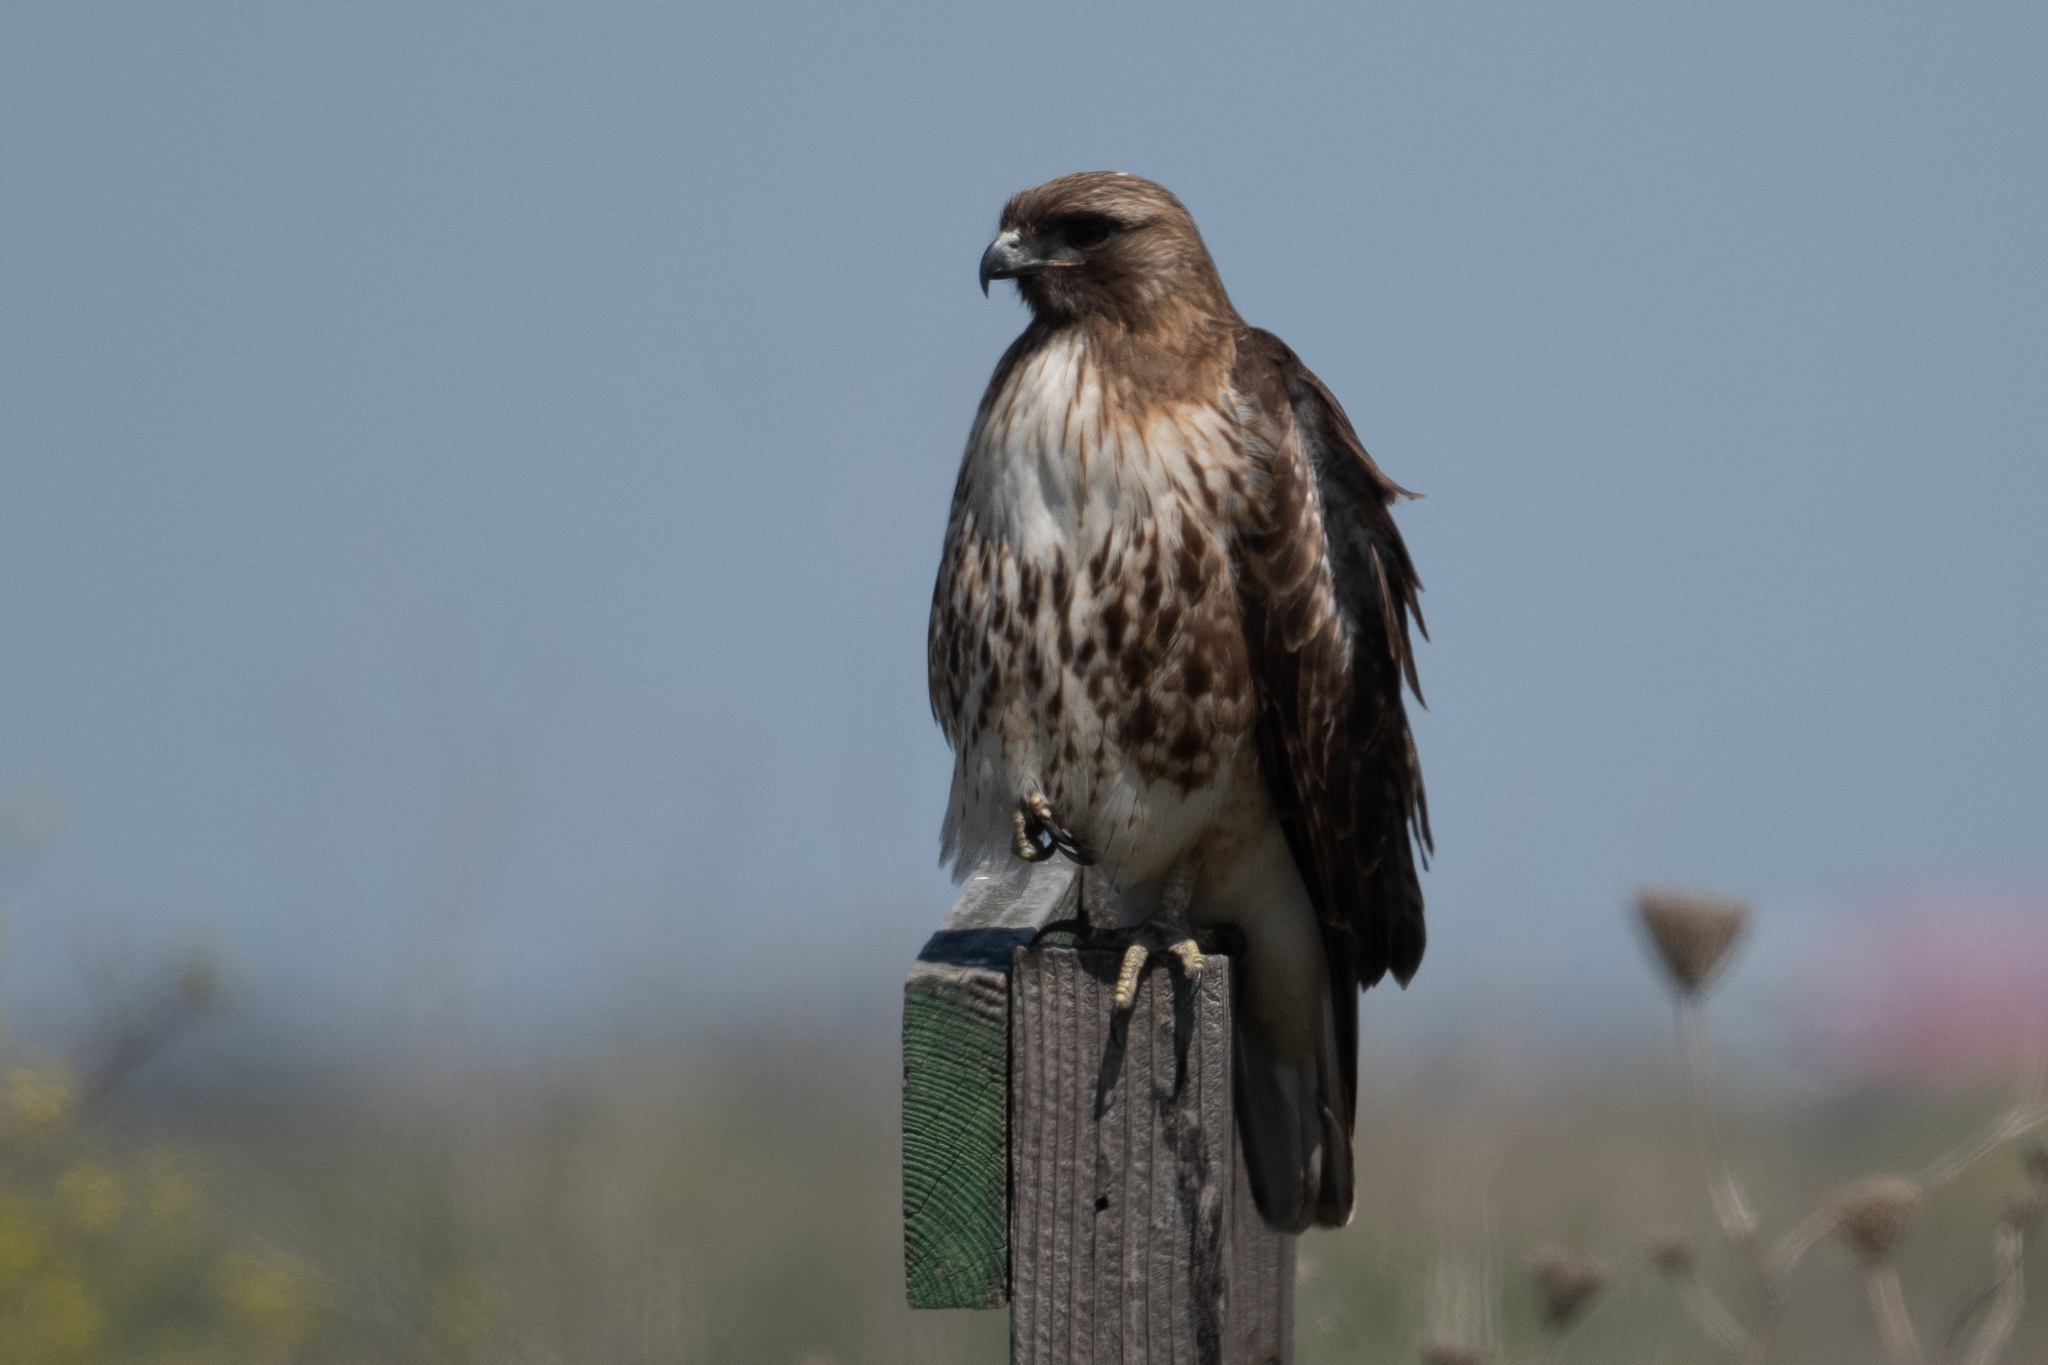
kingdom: Animalia
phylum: Chordata
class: Aves
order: Accipitriformes
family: Accipitridae
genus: Buteo
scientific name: Buteo jamaicensis
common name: Red-tailed hawk
